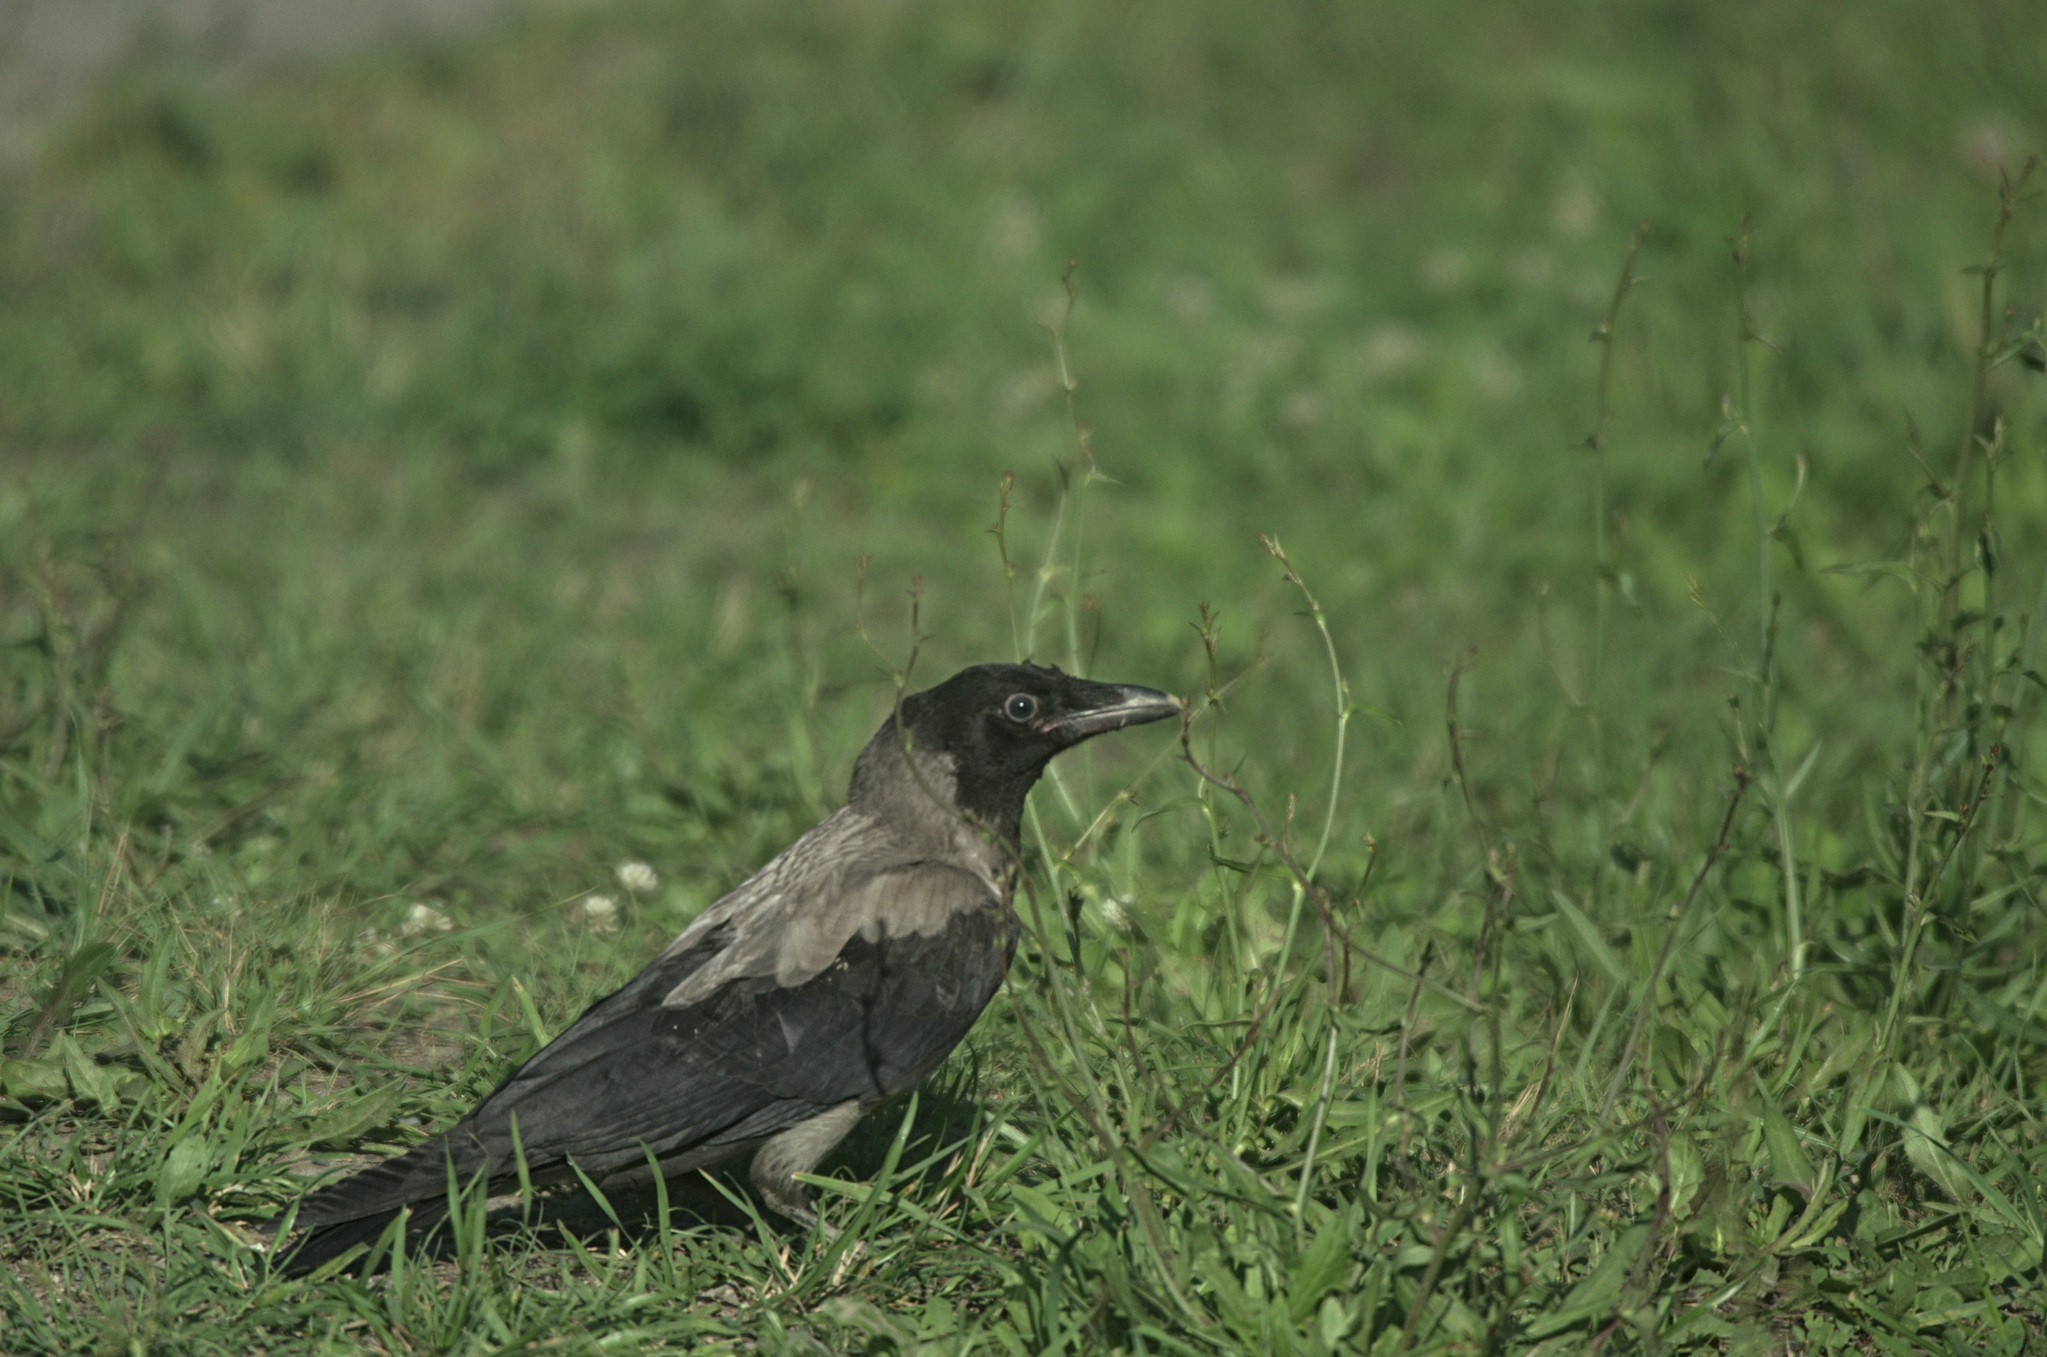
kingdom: Animalia
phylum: Chordata
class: Aves
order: Passeriformes
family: Corvidae
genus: Corvus
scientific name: Corvus cornix
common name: Hooded crow
